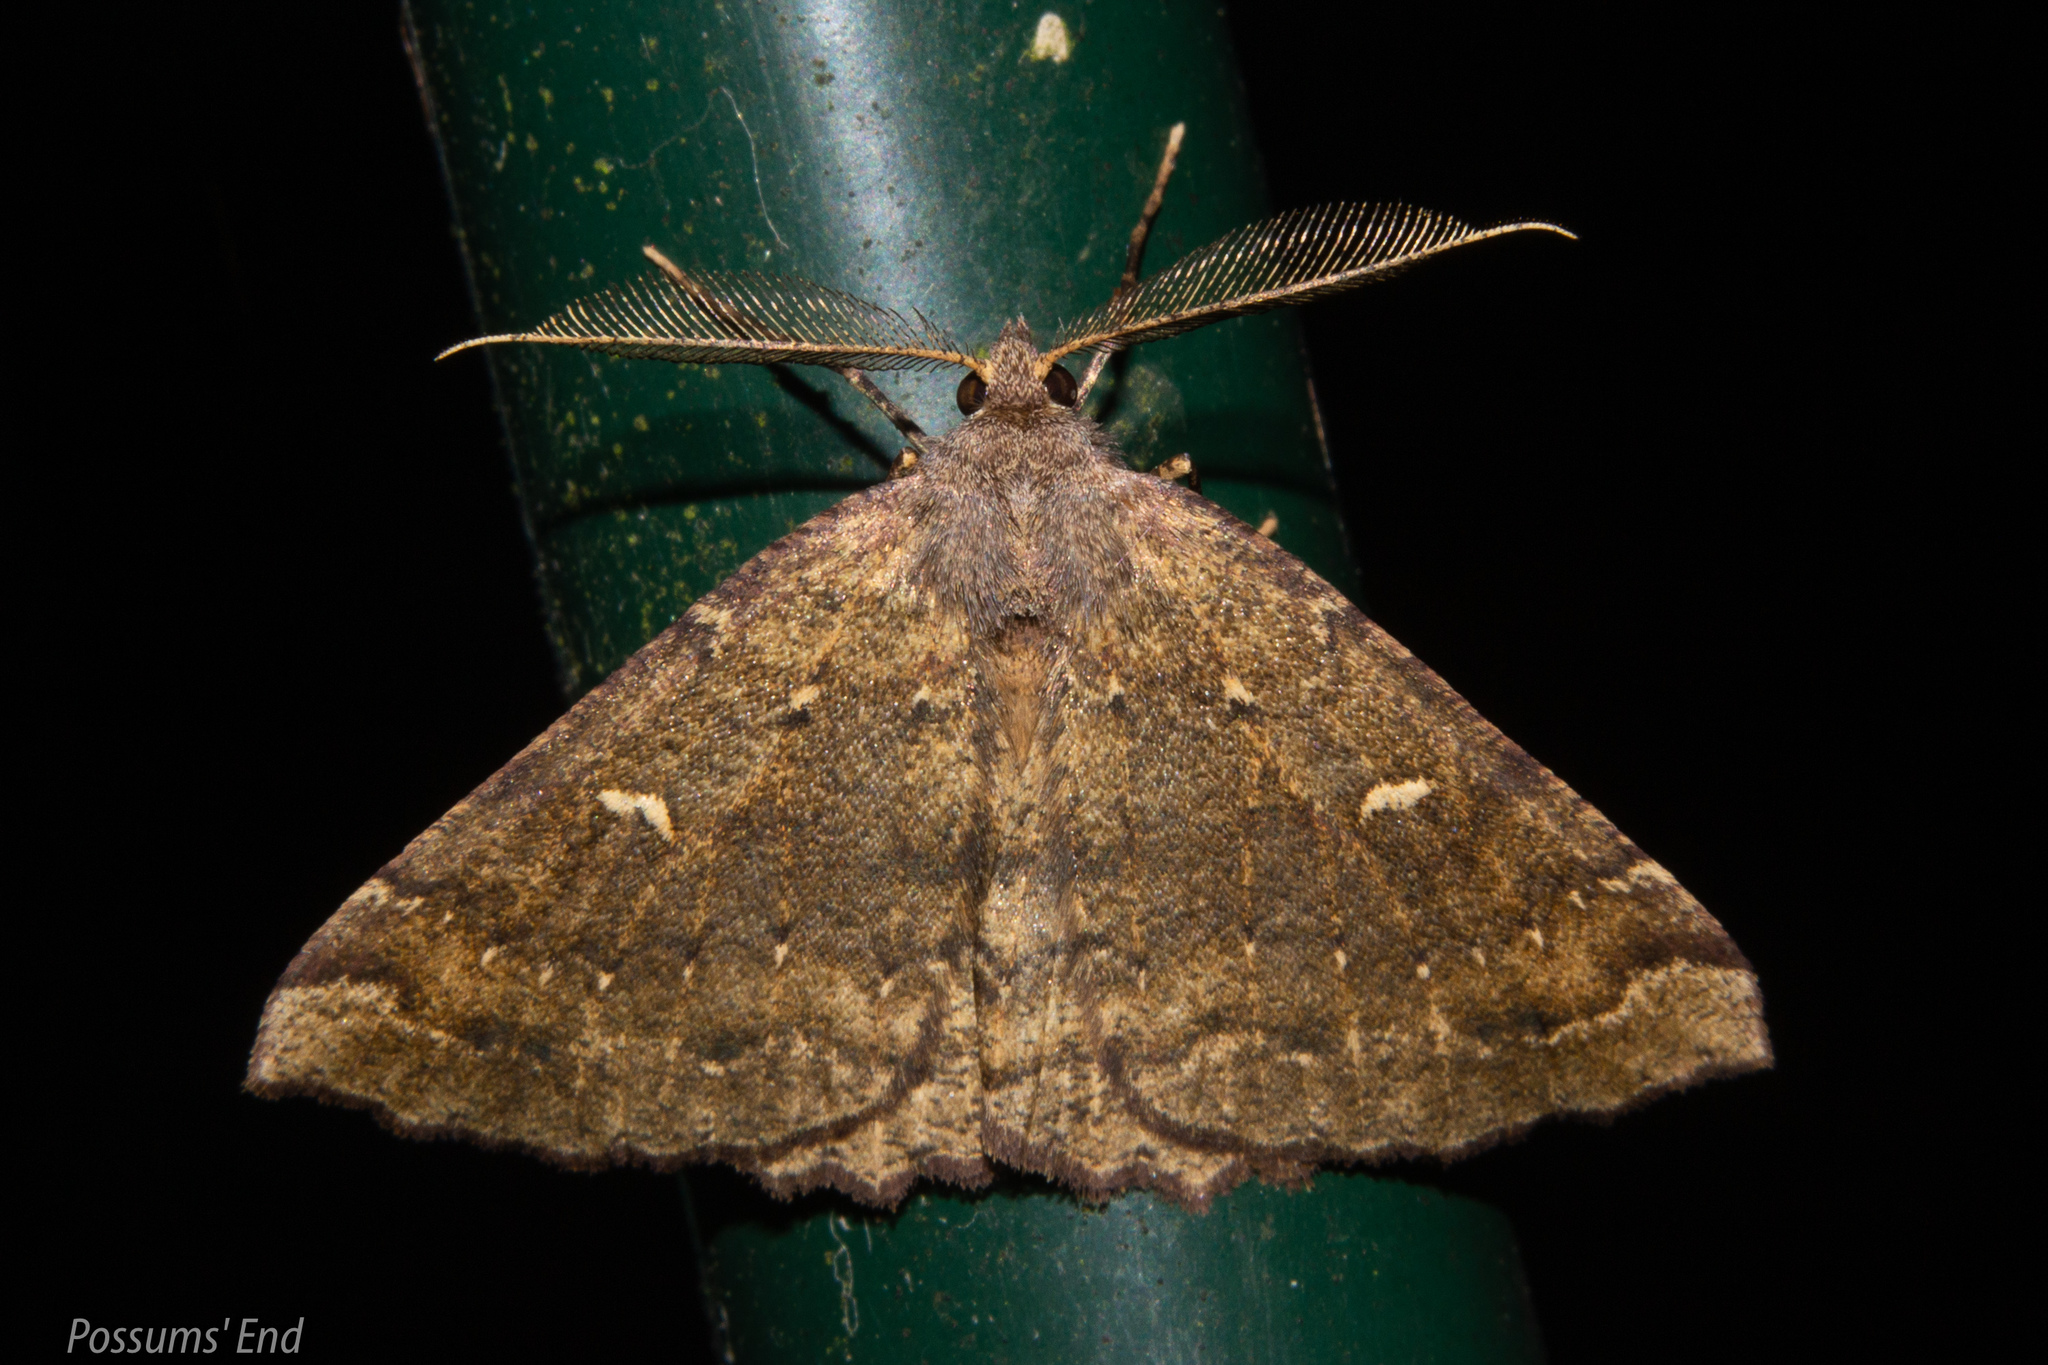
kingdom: Animalia
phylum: Arthropoda
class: Insecta
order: Lepidoptera
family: Geometridae
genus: Cleora
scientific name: Cleora scriptaria
